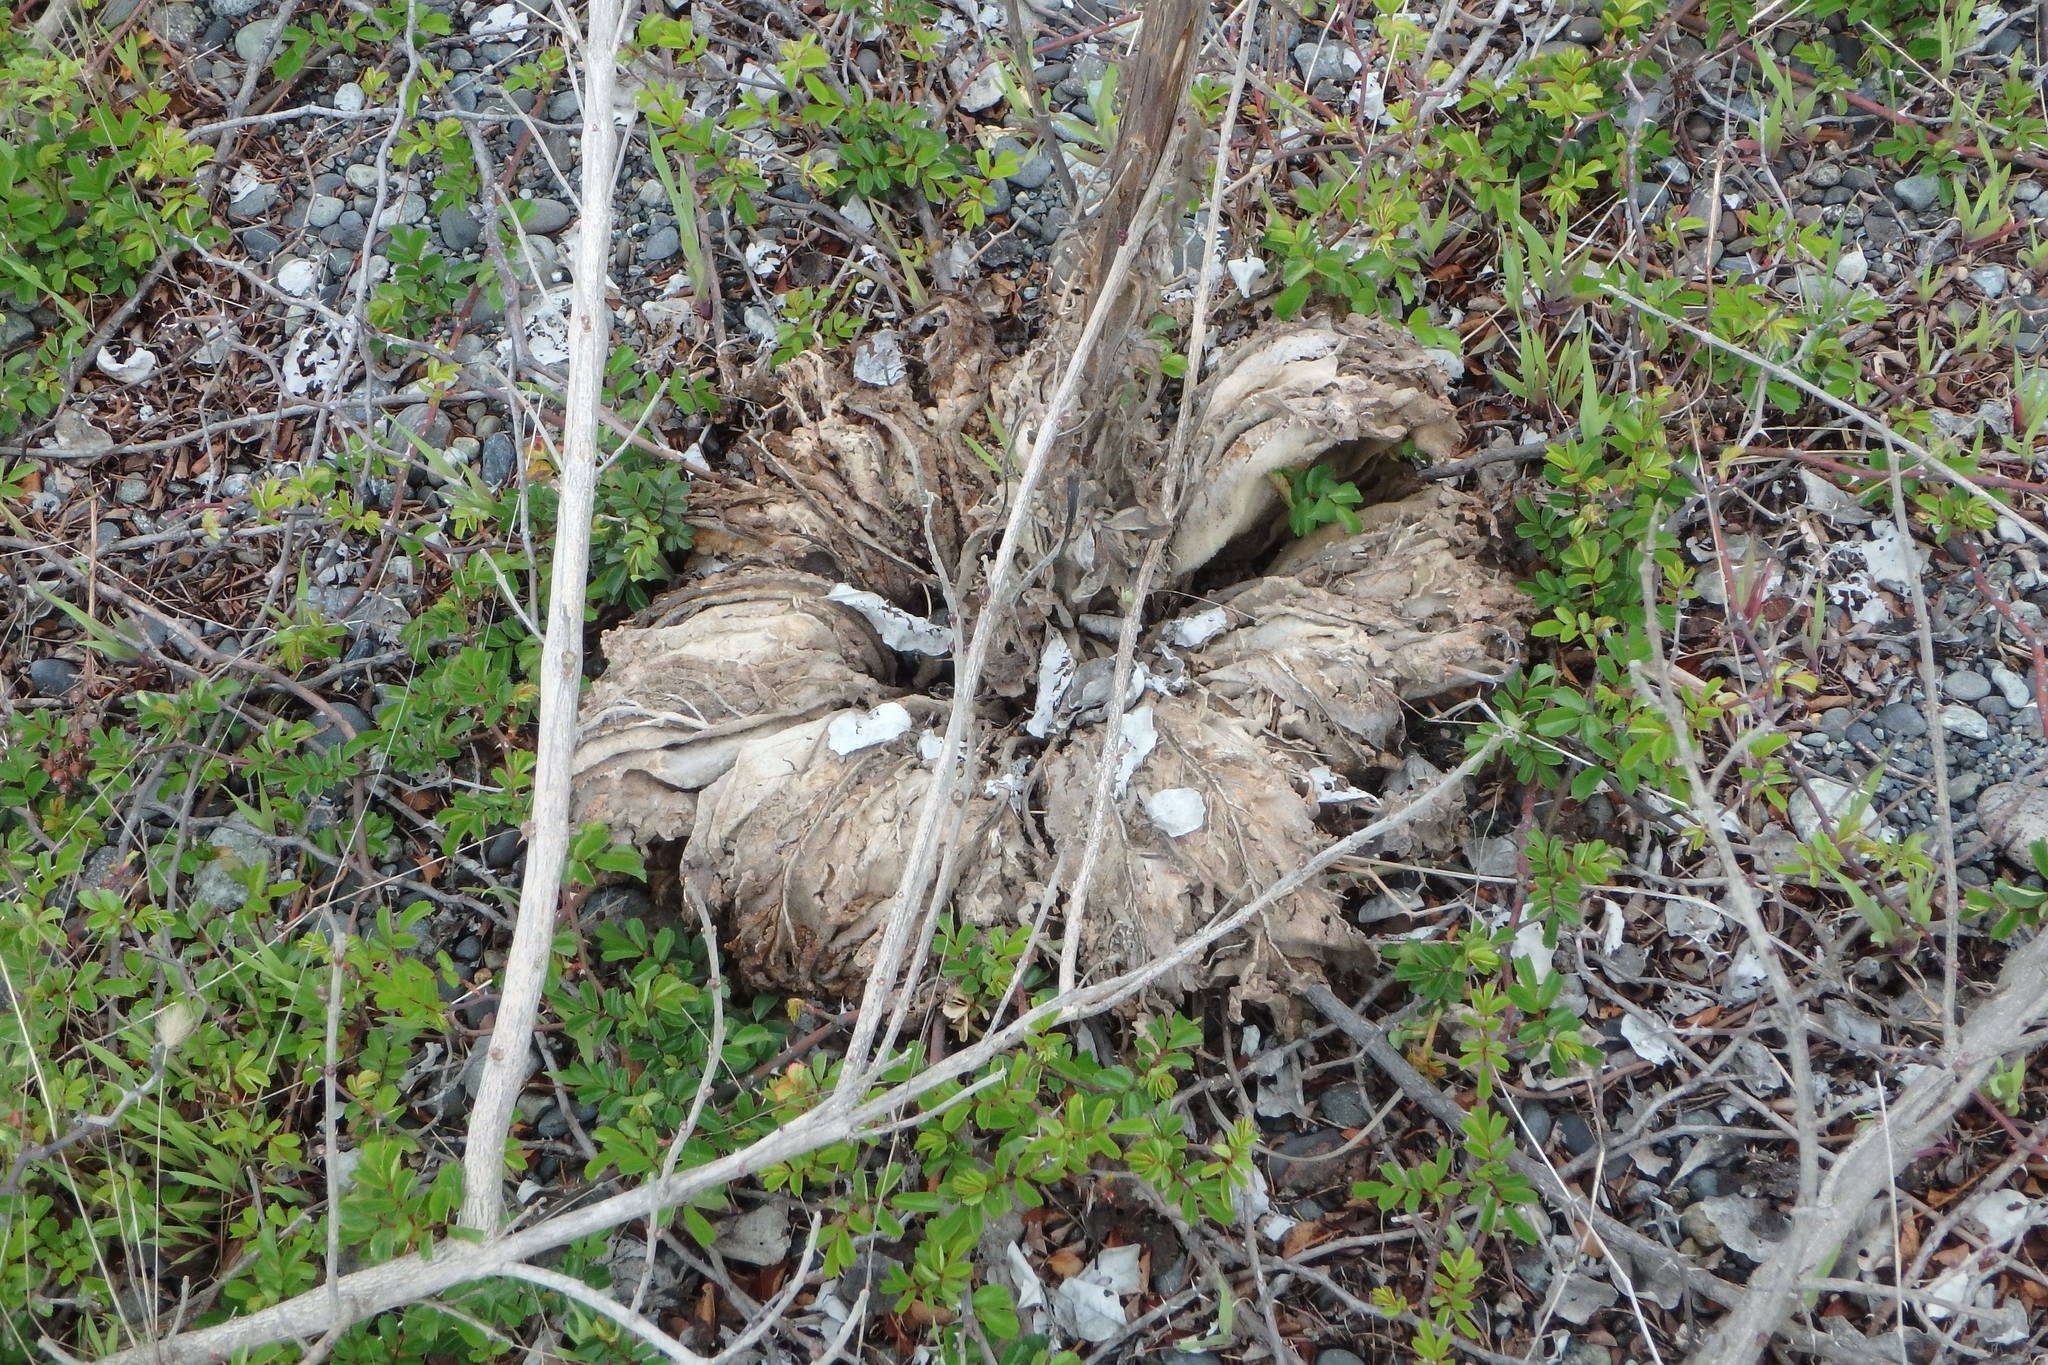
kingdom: Plantae
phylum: Tracheophyta
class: Magnoliopsida
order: Lamiales
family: Scrophulariaceae
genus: Verbascum
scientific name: Verbascum thapsus
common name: Common mullein
